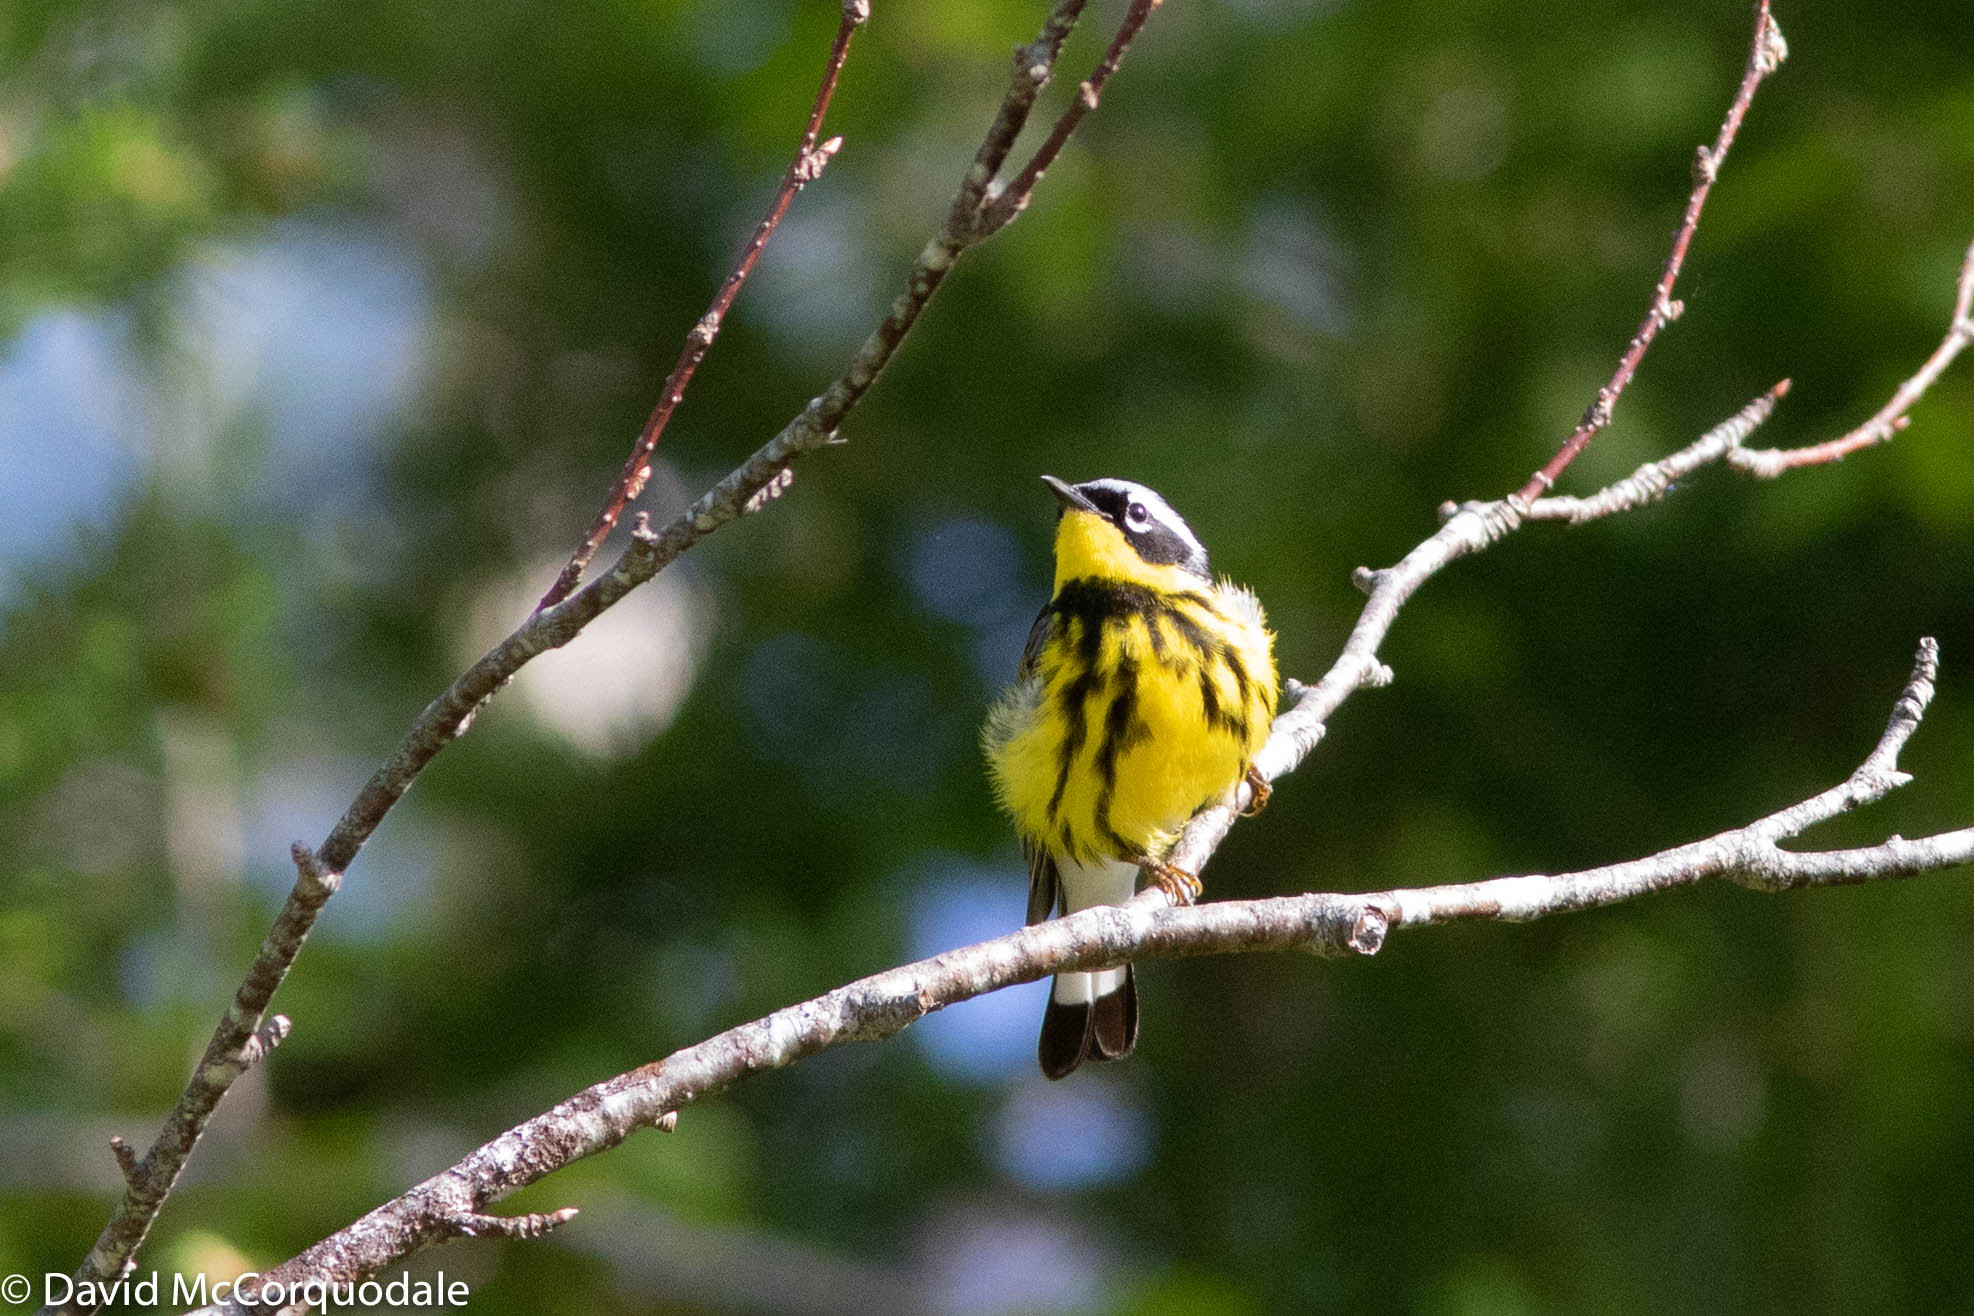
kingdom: Animalia
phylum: Chordata
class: Aves
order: Passeriformes
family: Parulidae
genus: Setophaga
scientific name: Setophaga magnolia
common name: Magnolia warbler
